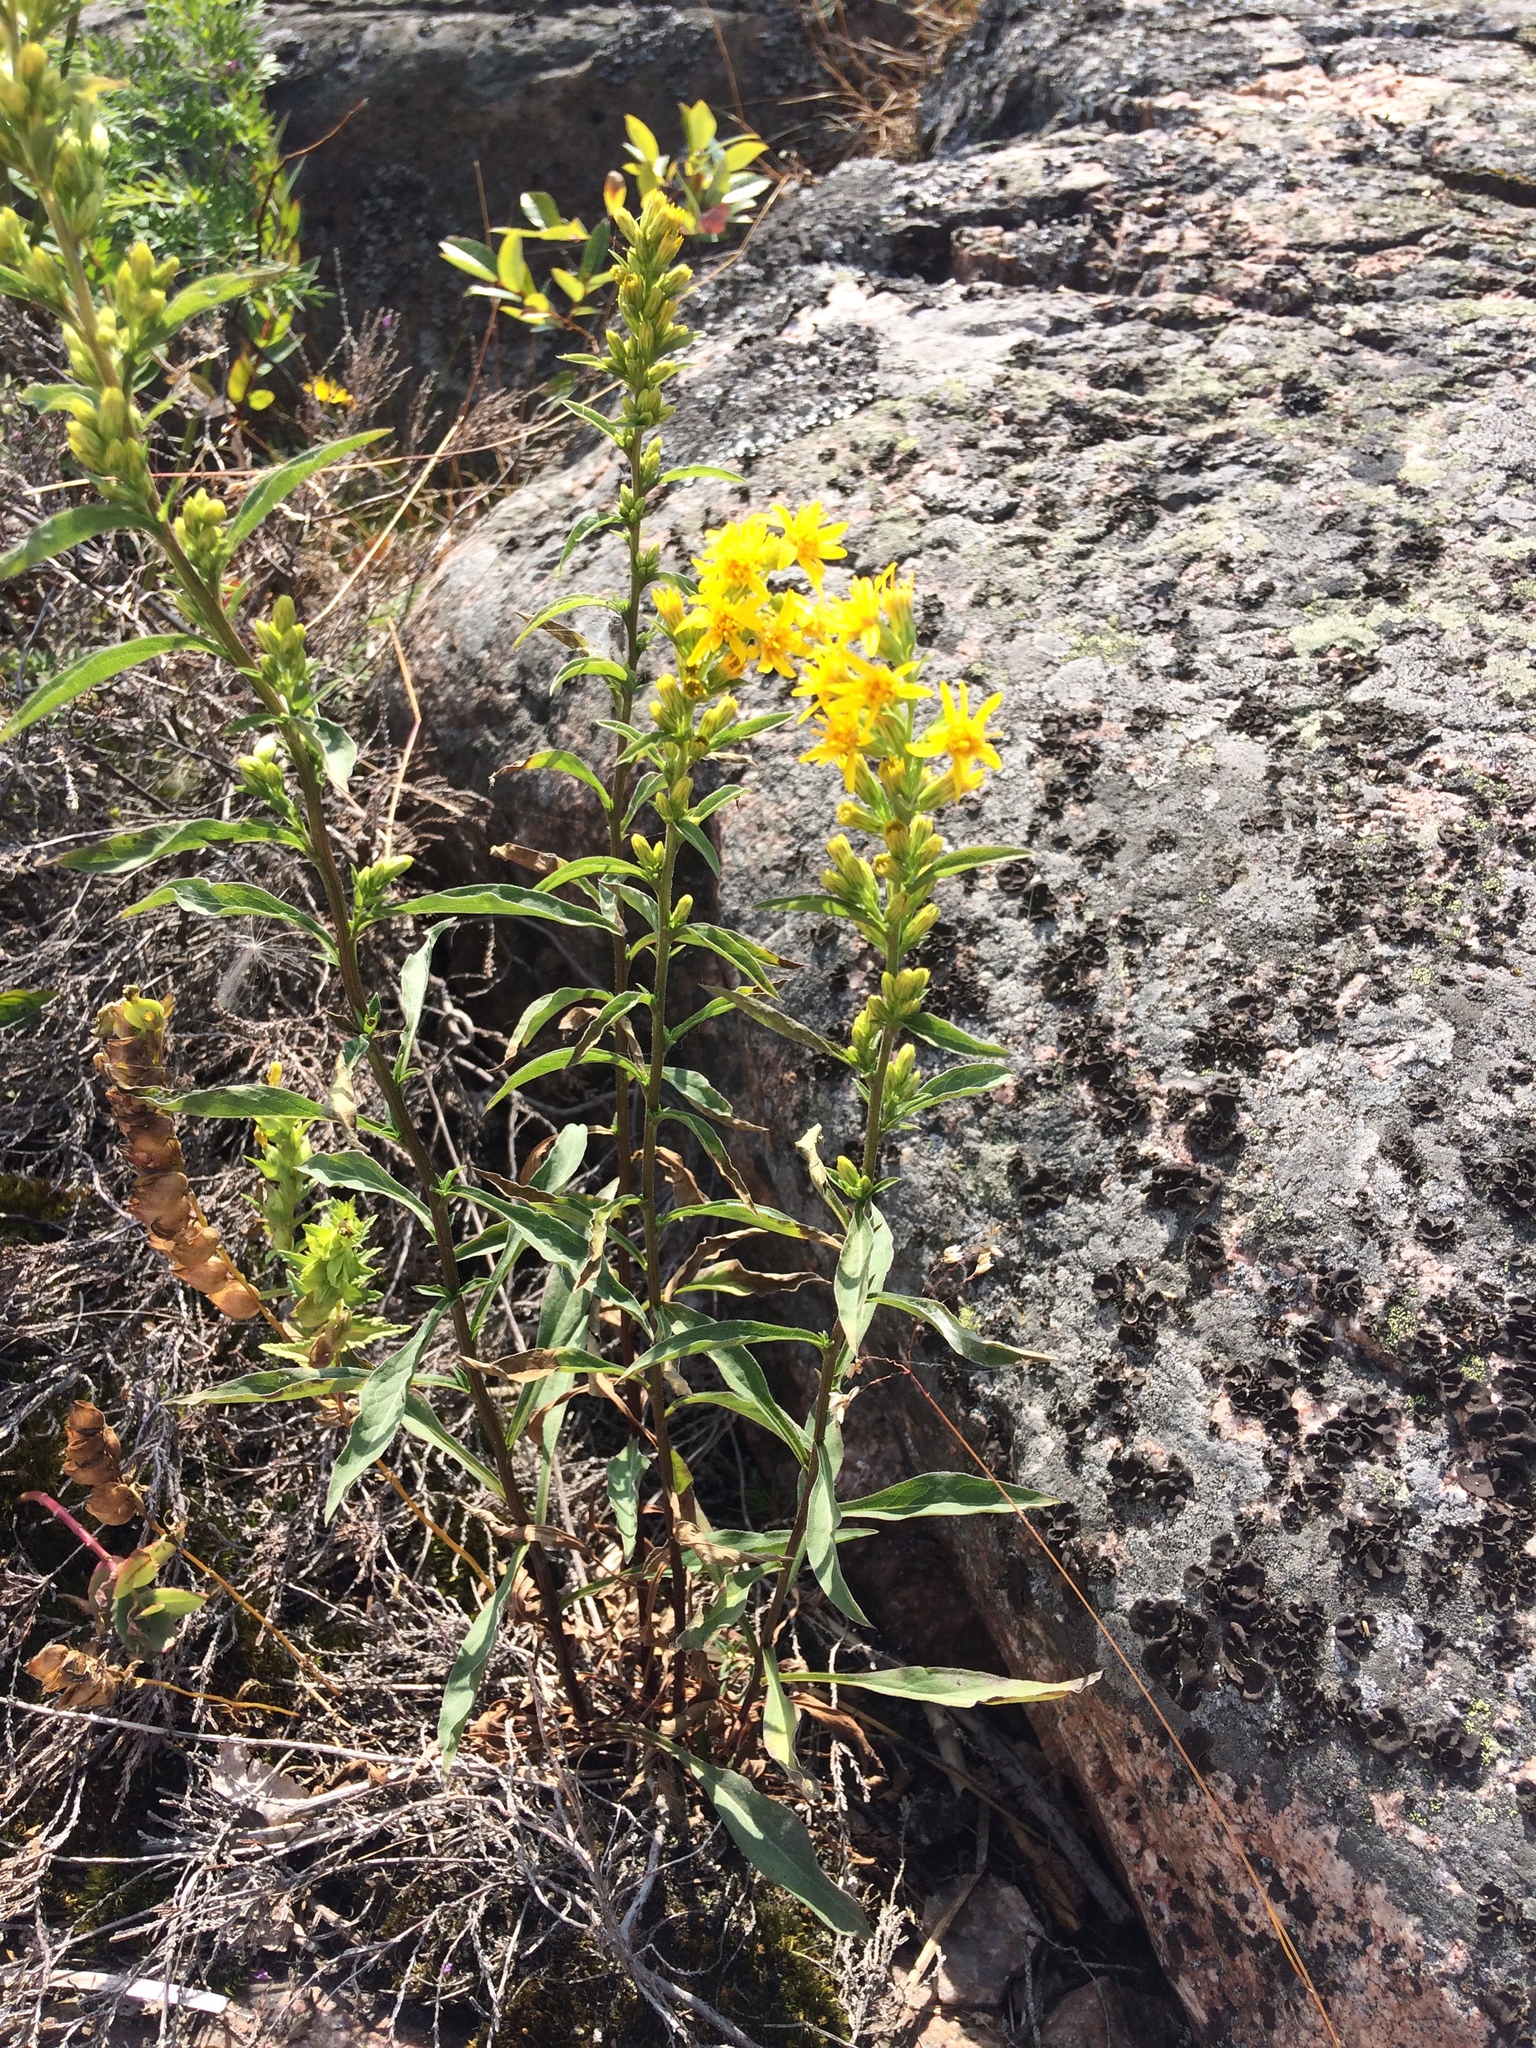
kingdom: Plantae
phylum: Tracheophyta
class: Magnoliopsida
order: Asterales
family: Asteraceae
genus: Solidago
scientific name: Solidago virgaurea
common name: Goldenrod
